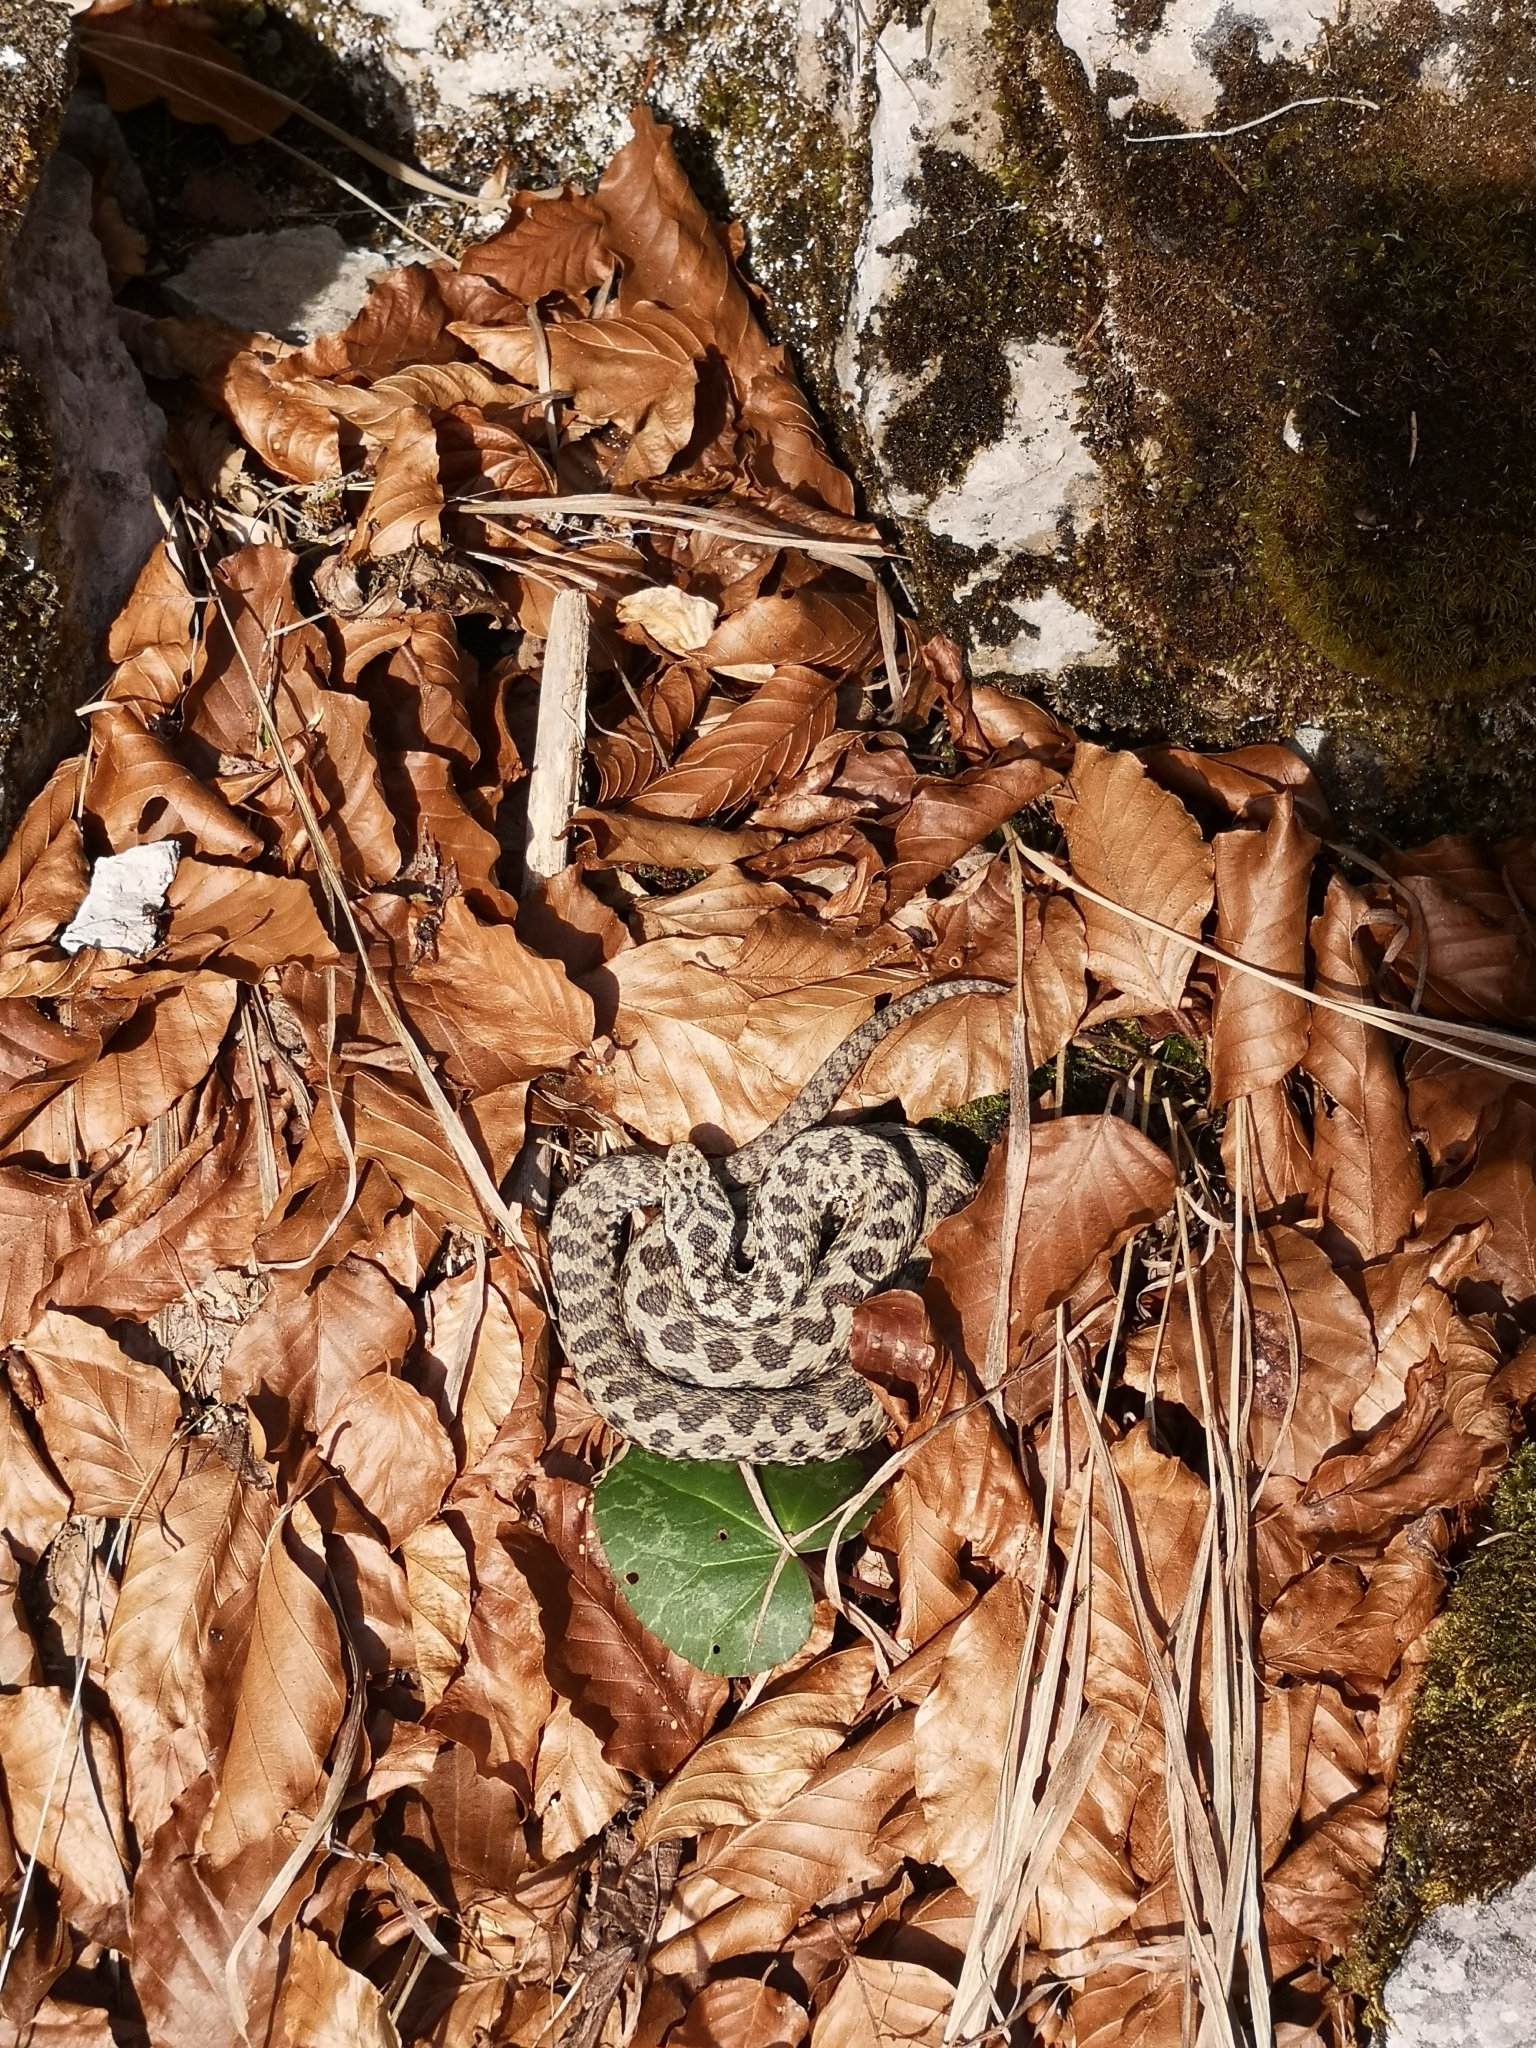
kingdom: Animalia
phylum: Chordata
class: Squamata
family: Viperidae
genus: Vipera
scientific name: Vipera berus
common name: Adder
